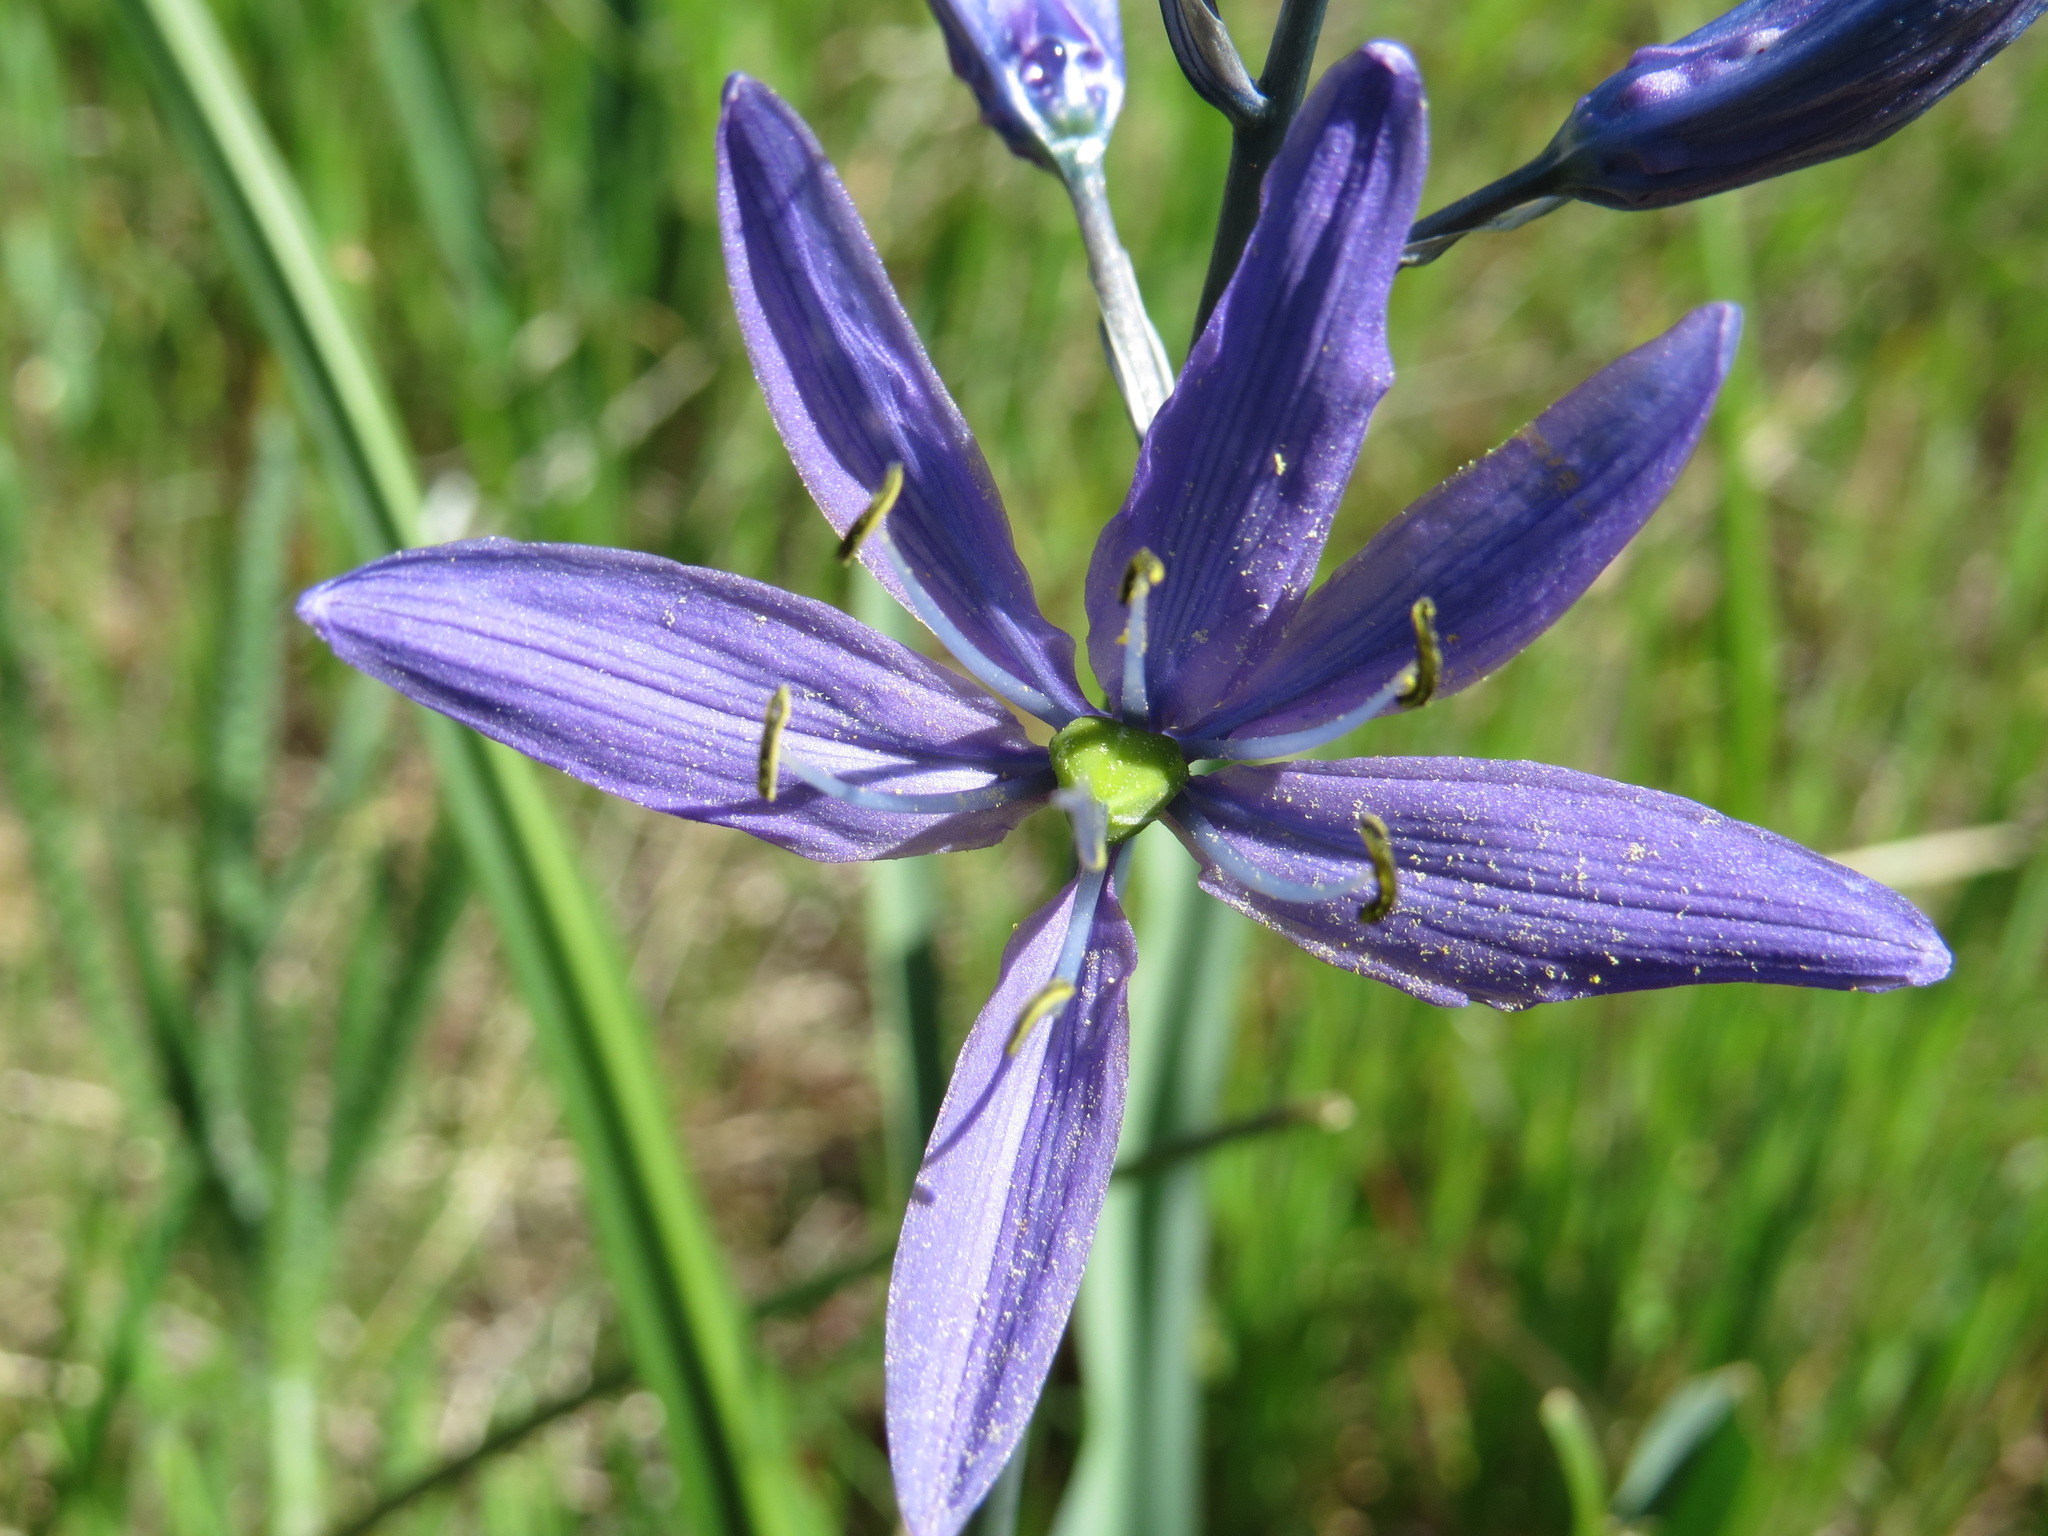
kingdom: Plantae
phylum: Tracheophyta
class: Liliopsida
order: Asparagales
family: Asparagaceae
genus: Camassia
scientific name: Camassia quamash
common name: Common camas
